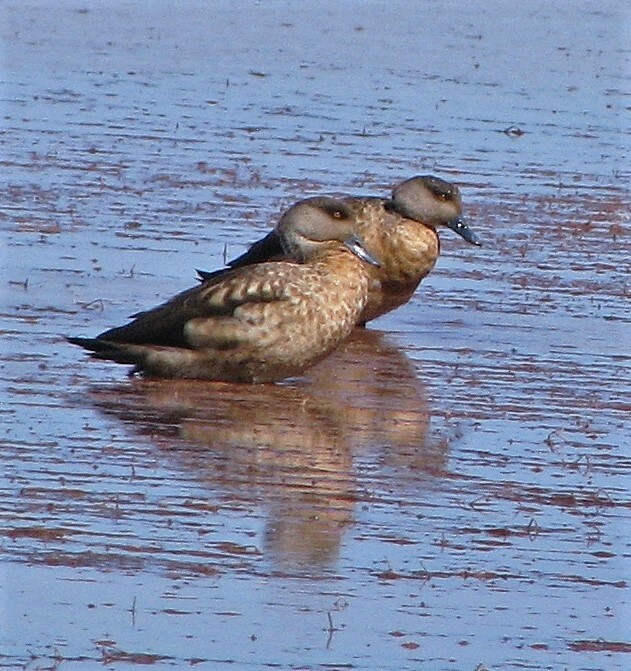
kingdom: Animalia
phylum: Chordata
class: Aves
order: Anseriformes
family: Anatidae
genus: Lophonetta
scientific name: Lophonetta specularioides
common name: Crested duck
